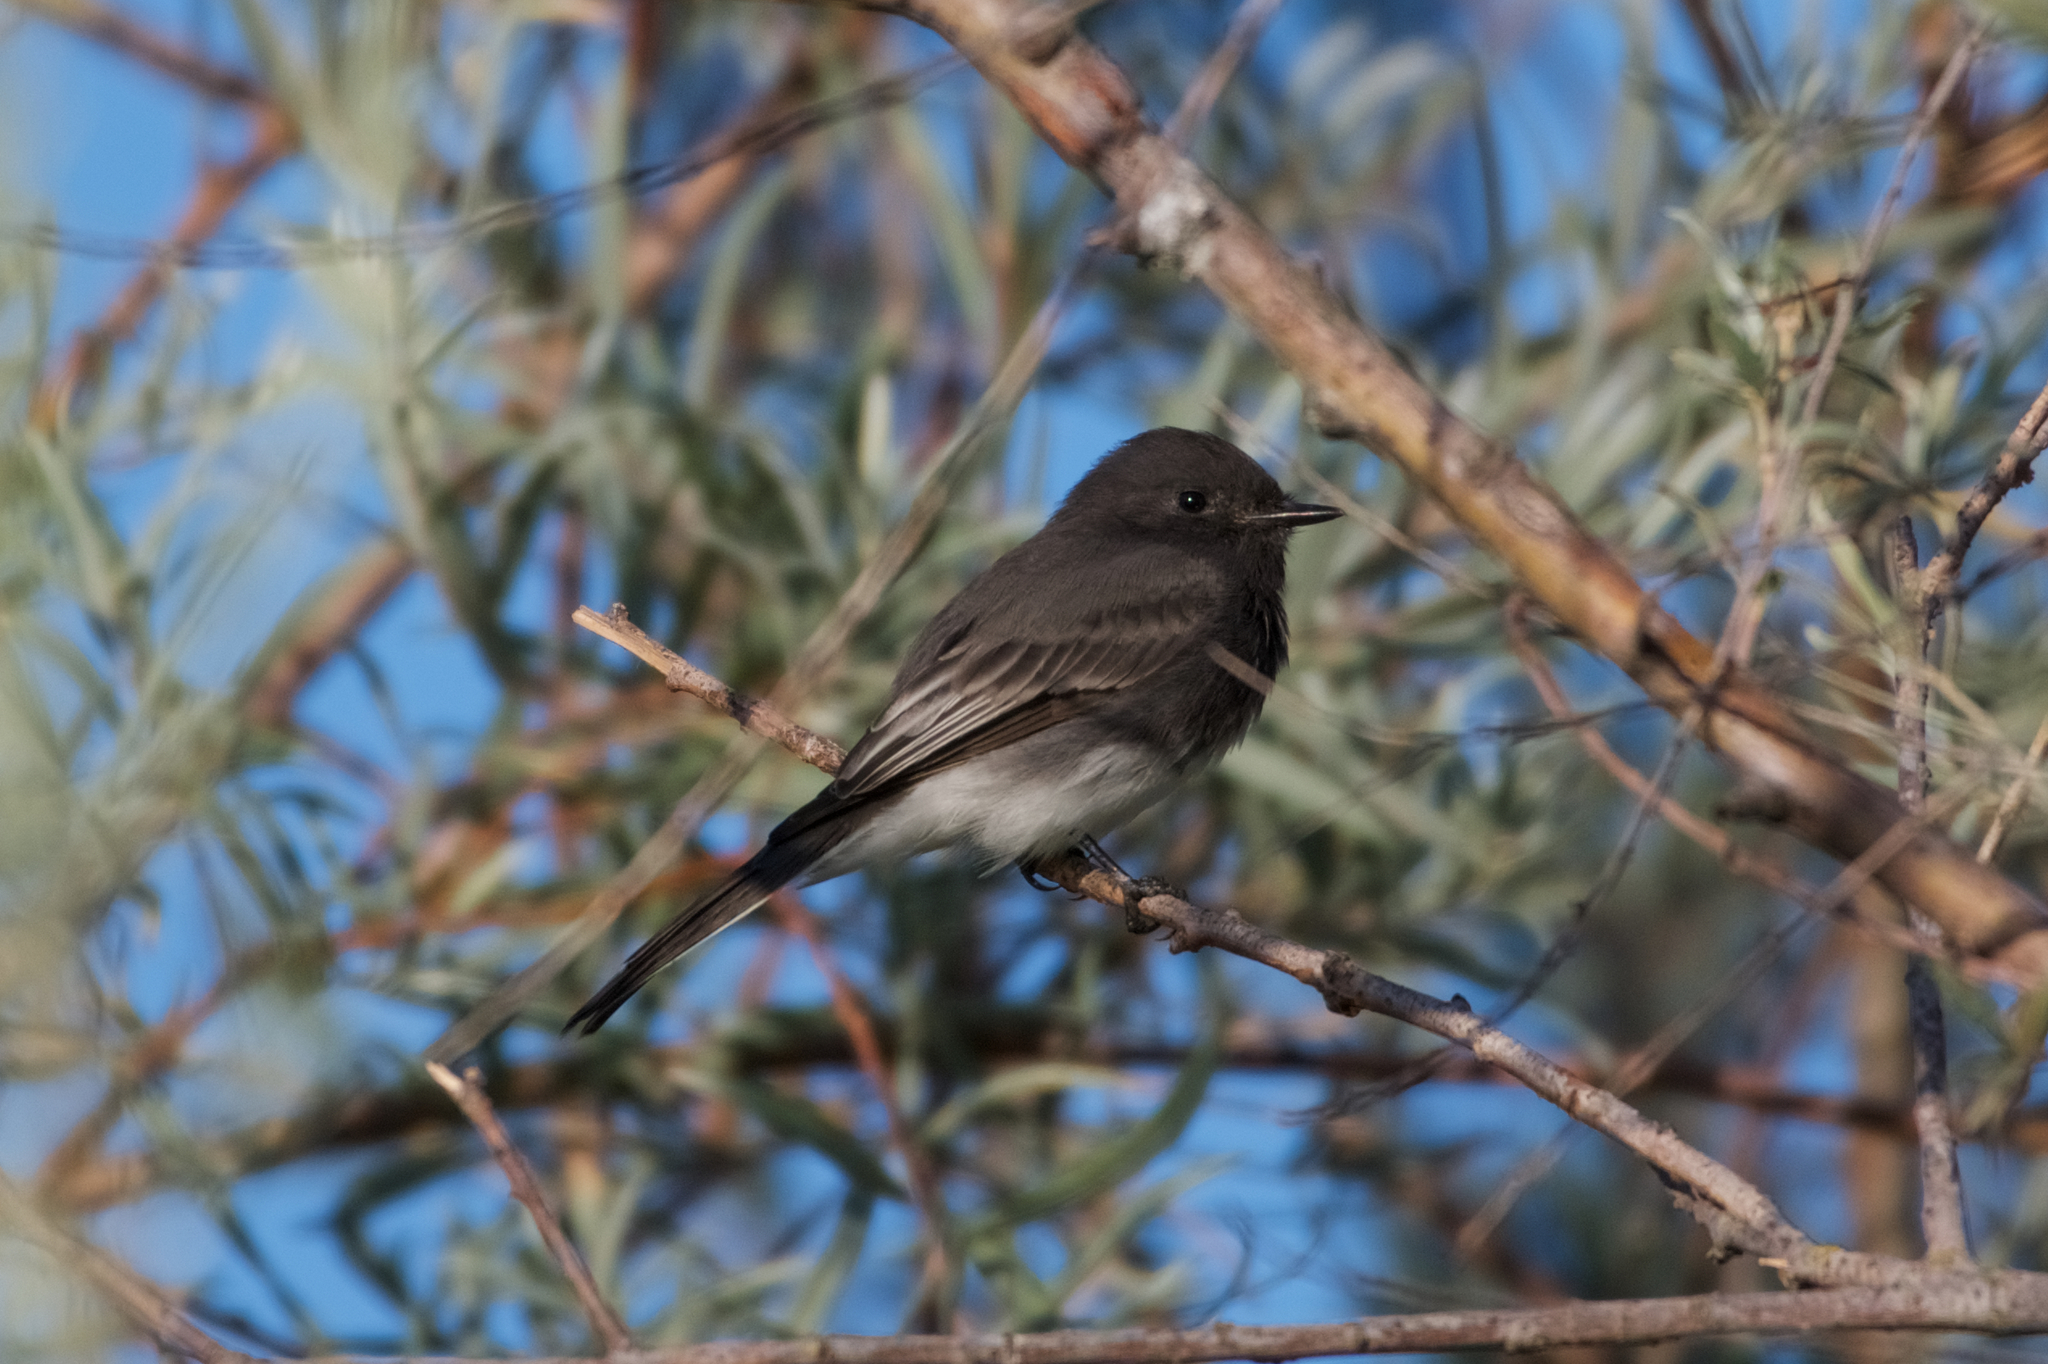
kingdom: Animalia
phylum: Chordata
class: Aves
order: Passeriformes
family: Tyrannidae
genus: Sayornis
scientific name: Sayornis nigricans
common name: Black phoebe
